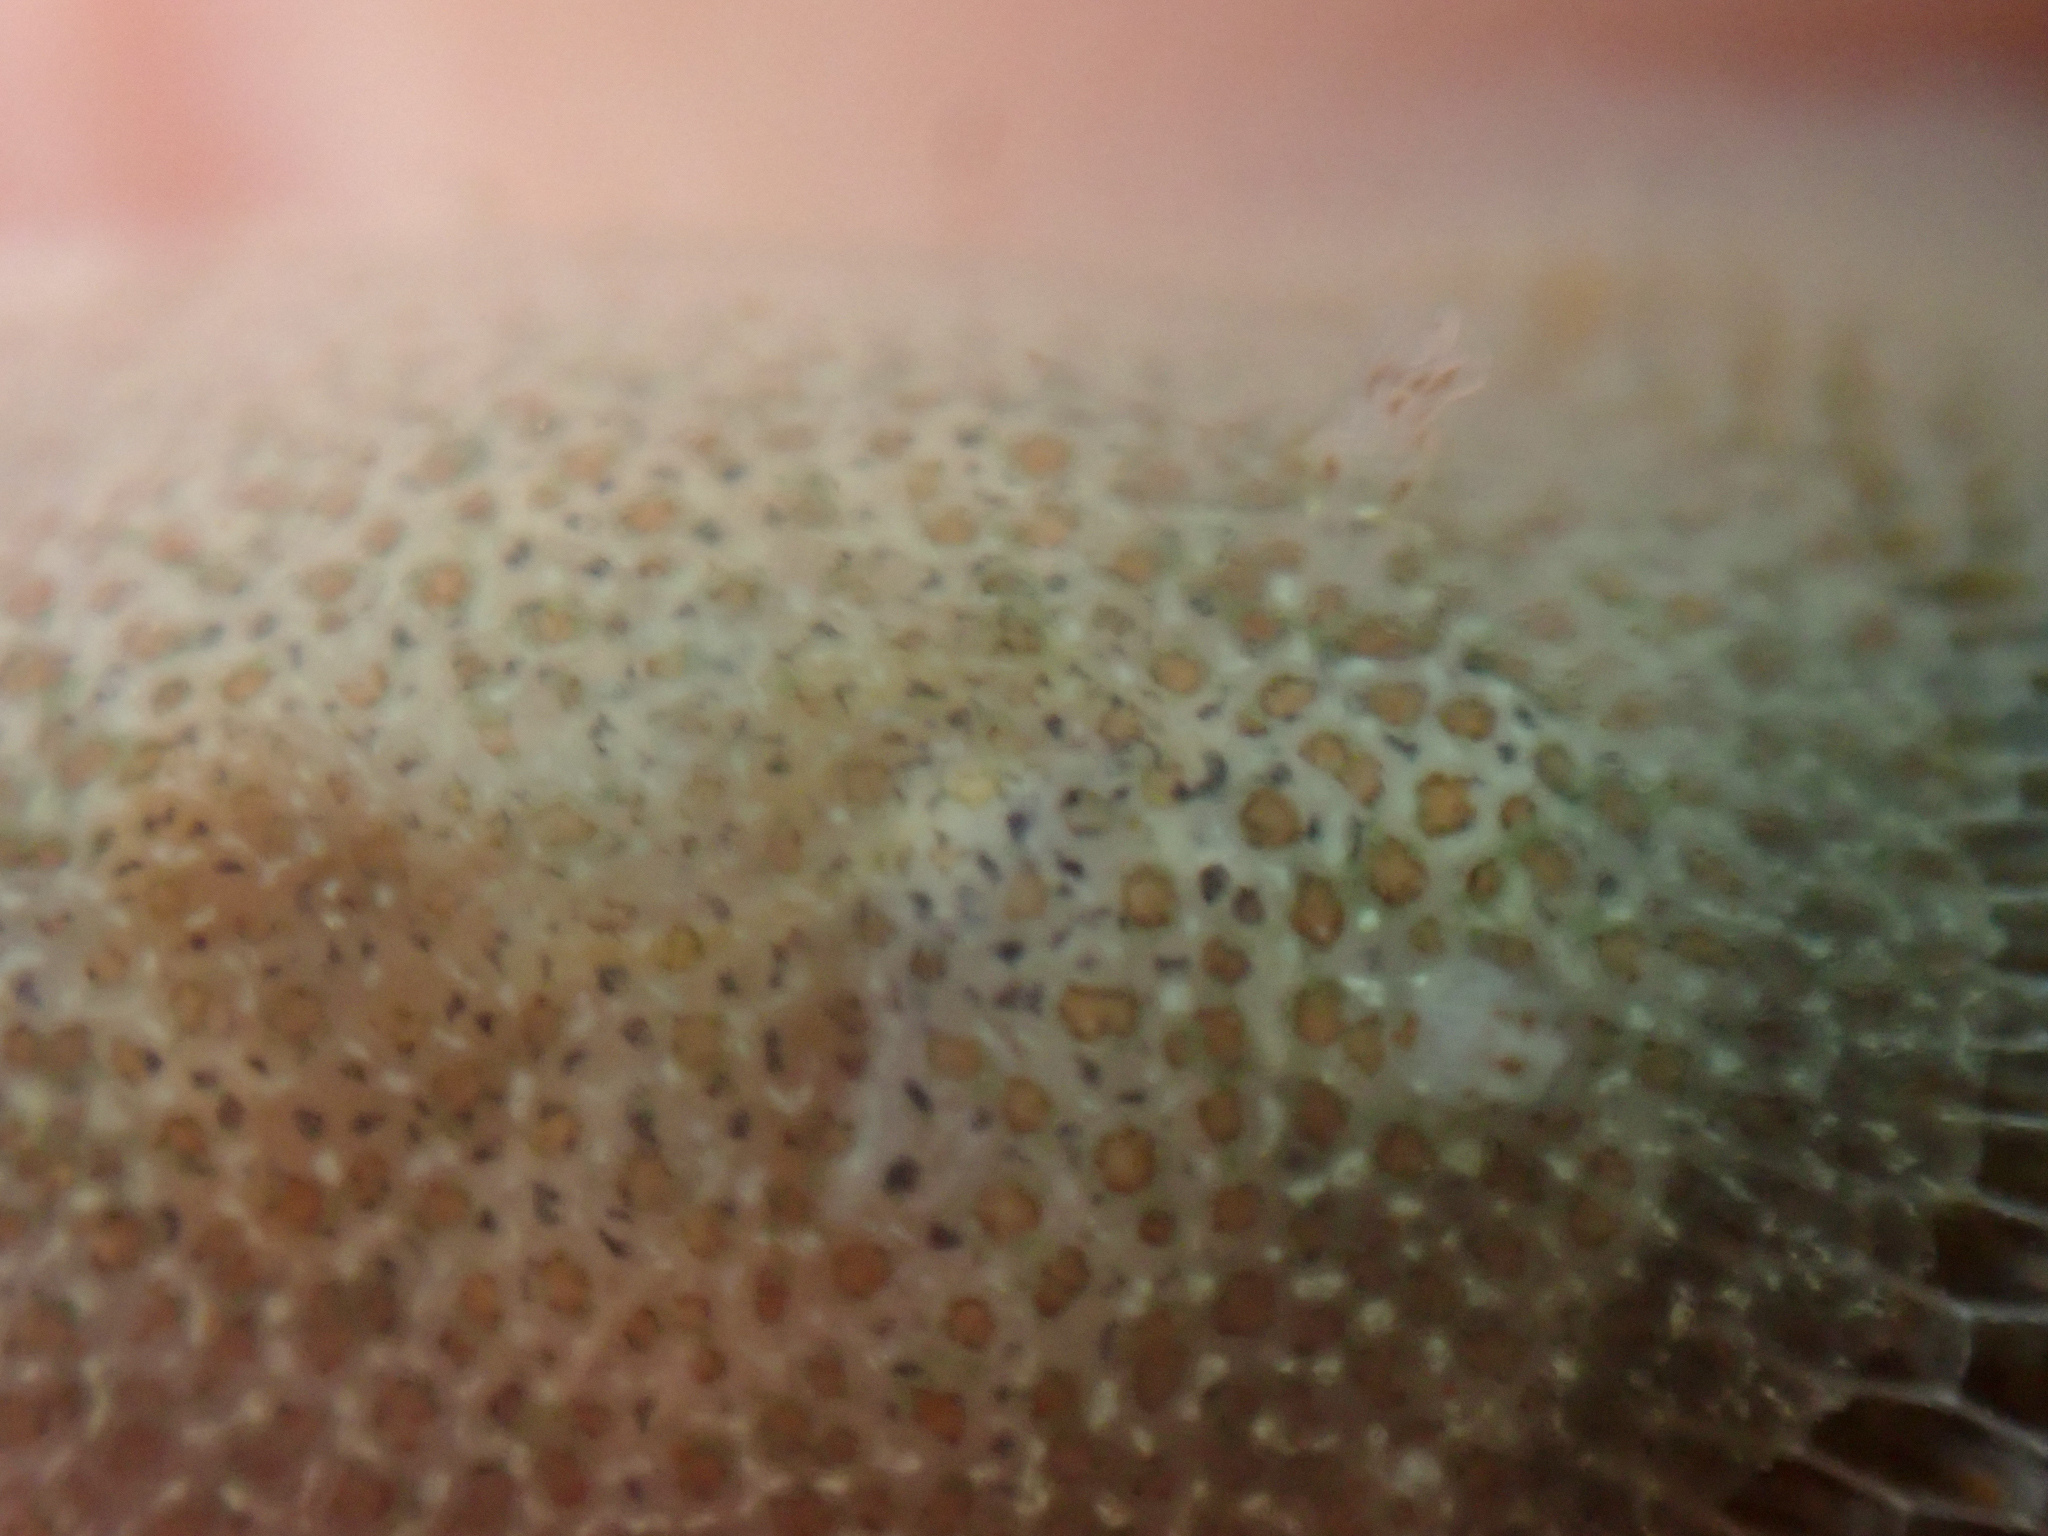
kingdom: Animalia
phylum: Mollusca
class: Gastropoda
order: Nudibranchia
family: Corambidae
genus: Corambe
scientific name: Corambe pacifica
